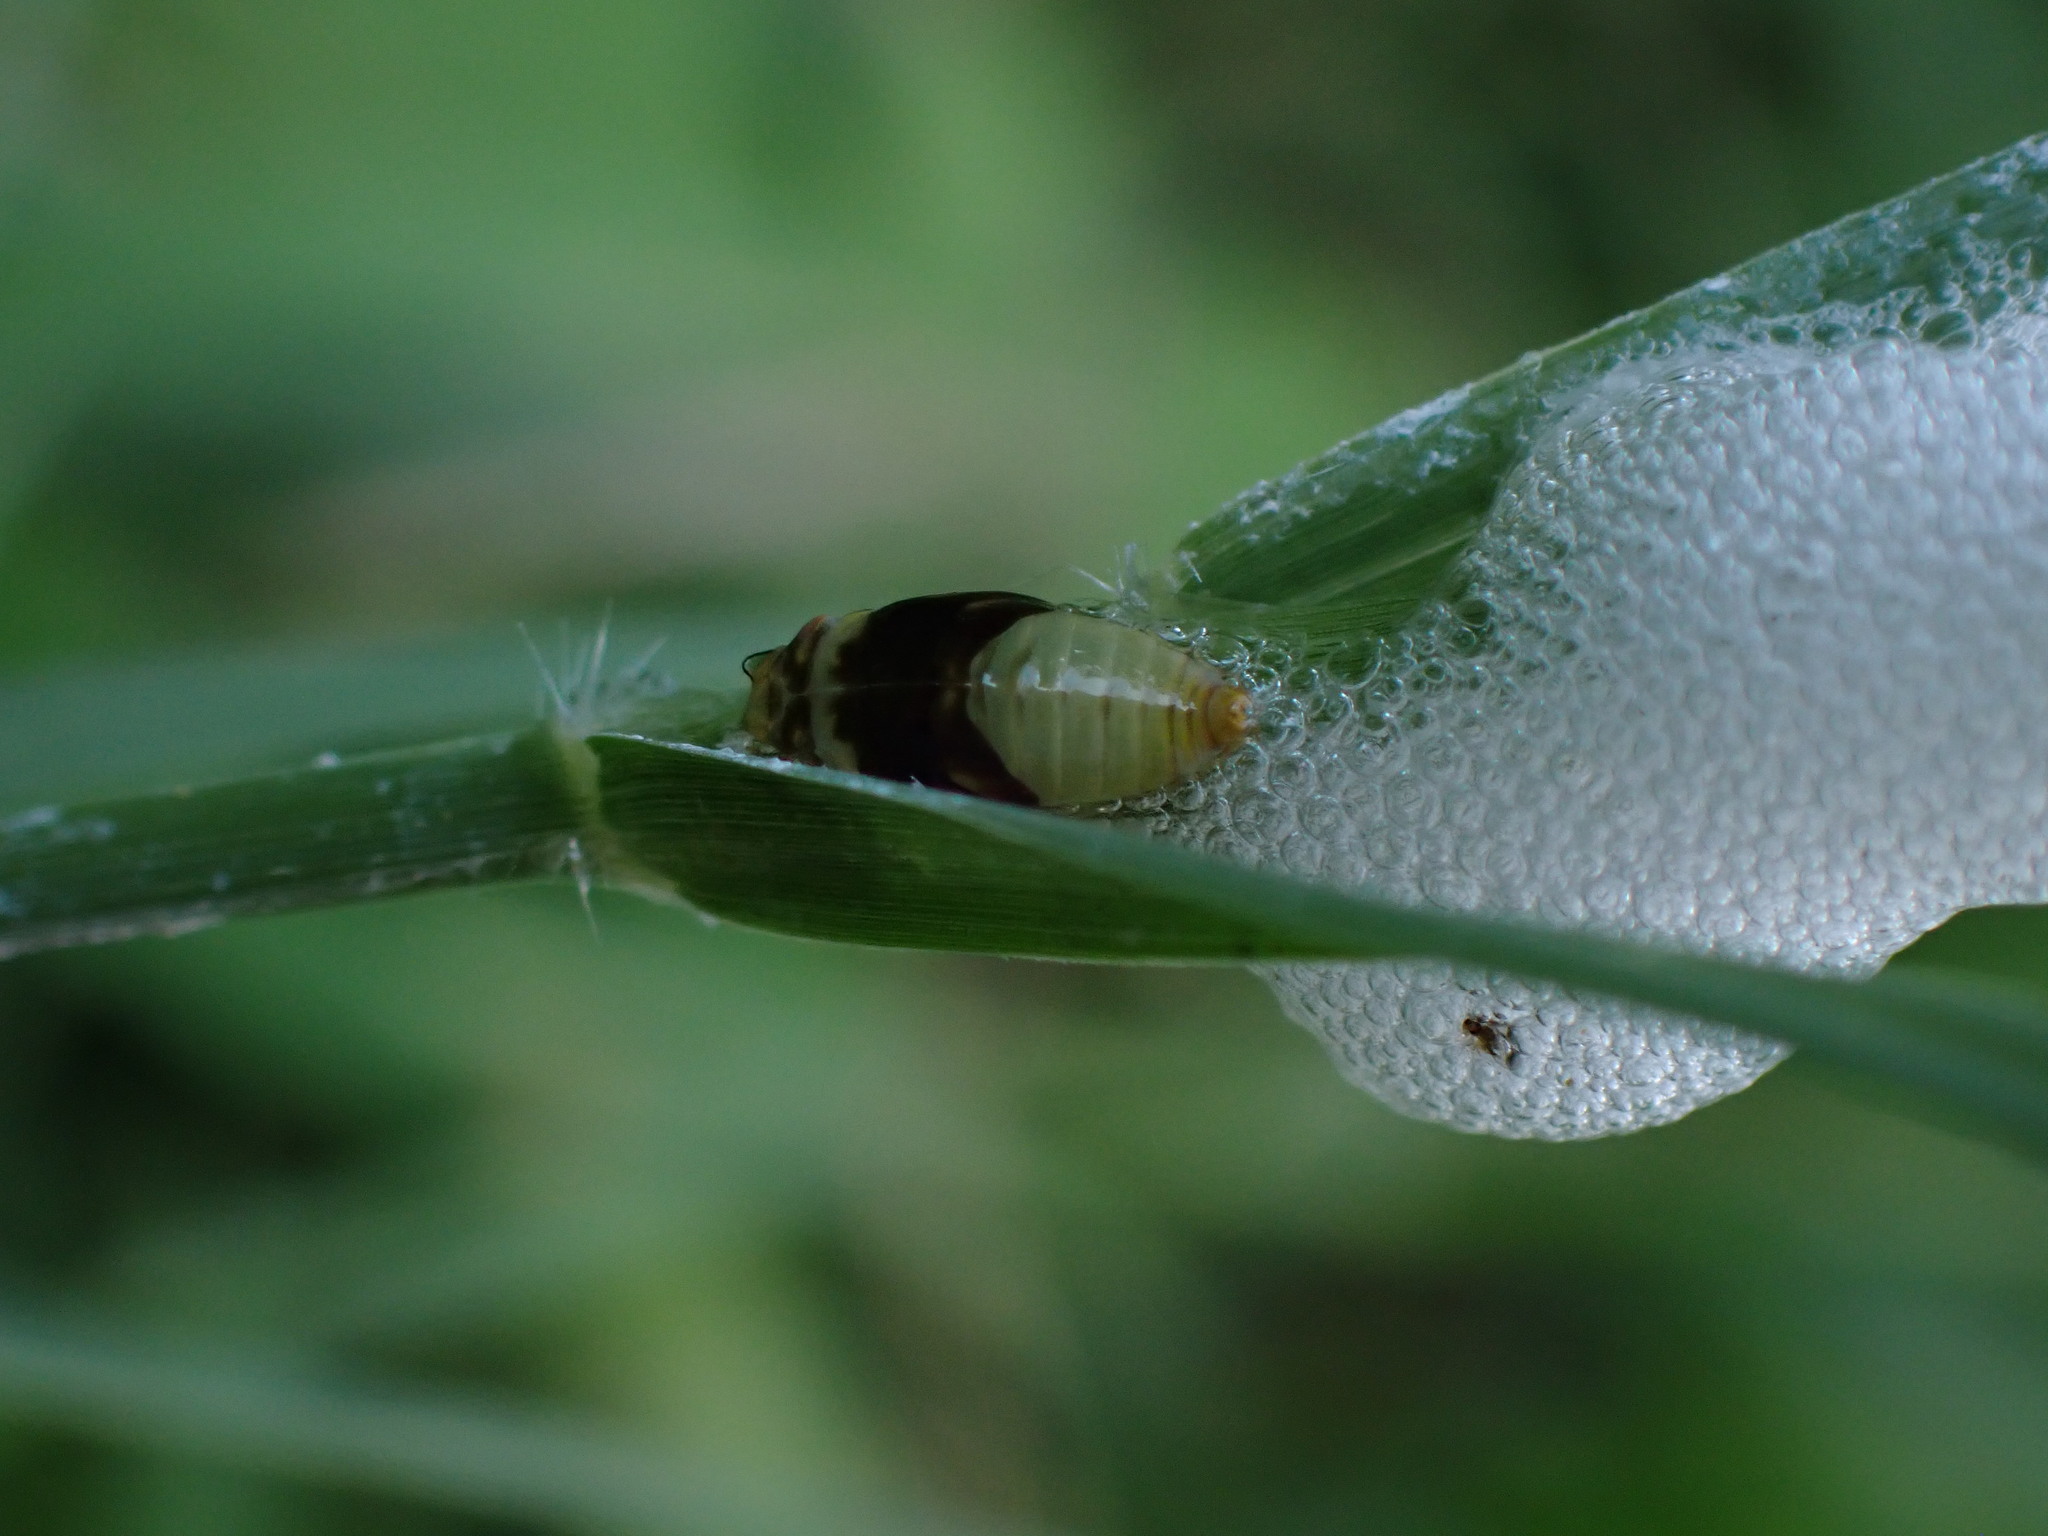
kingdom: Animalia
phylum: Arthropoda
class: Insecta
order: Hemiptera
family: Aphrophoridae
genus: Lepyronia
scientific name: Lepyronia quadrangularis
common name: Diamond-backed spittlebug
